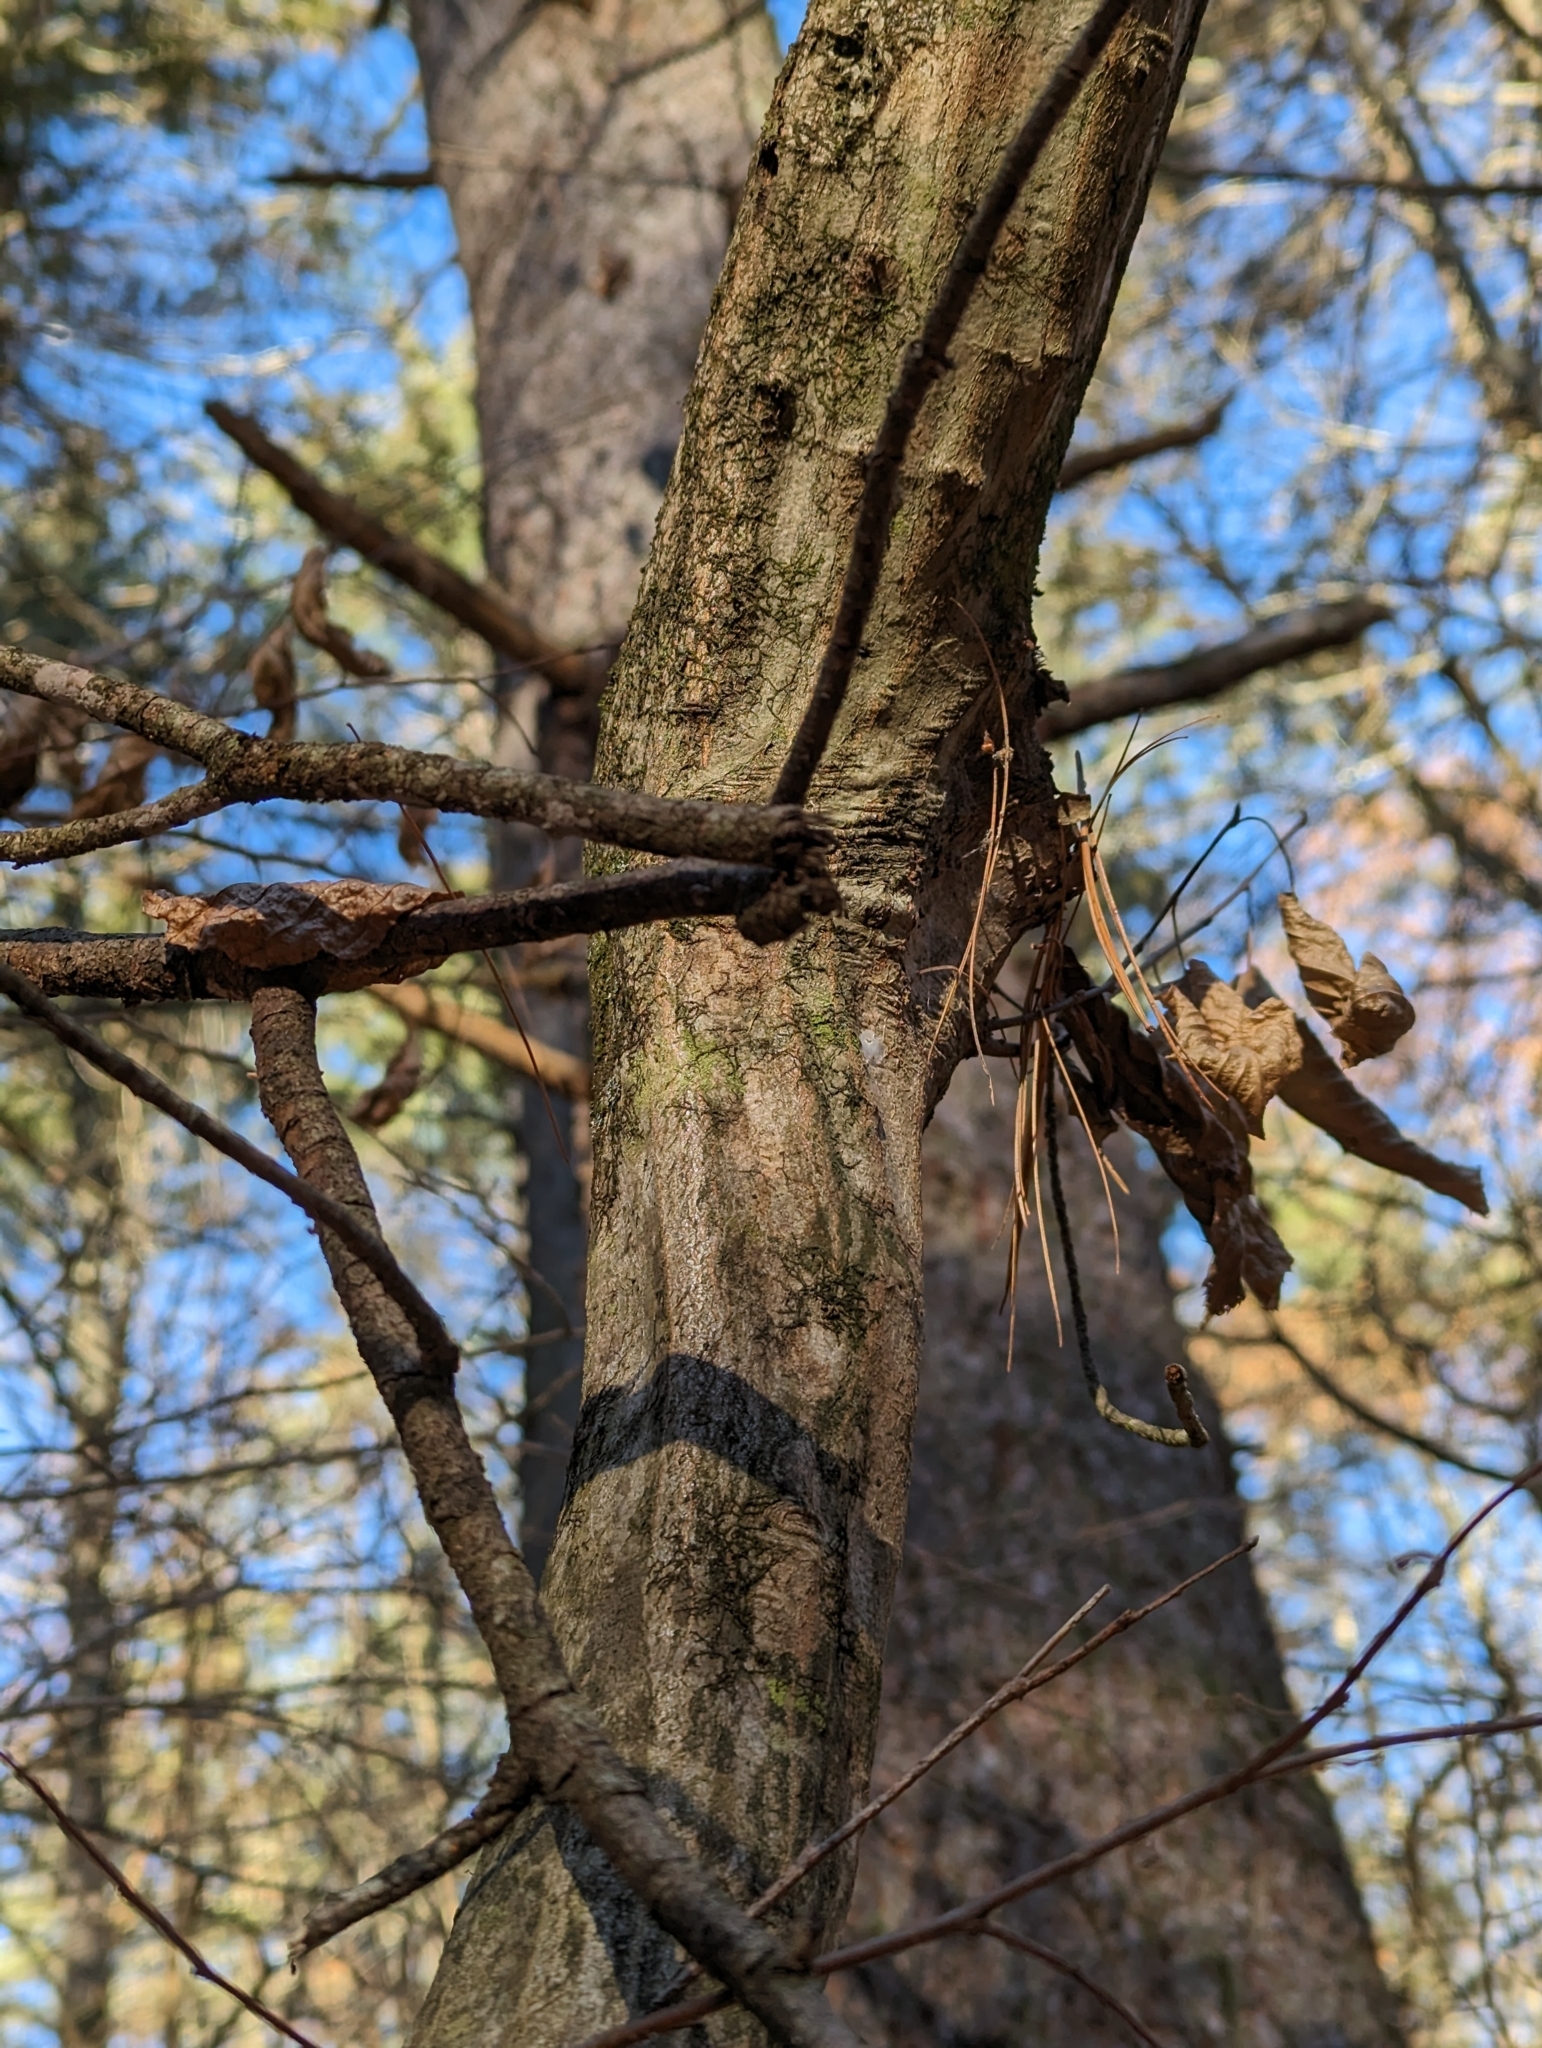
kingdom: Plantae
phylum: Tracheophyta
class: Magnoliopsida
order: Fagales
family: Betulaceae
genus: Carpinus
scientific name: Carpinus caroliniana
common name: American hornbeam
